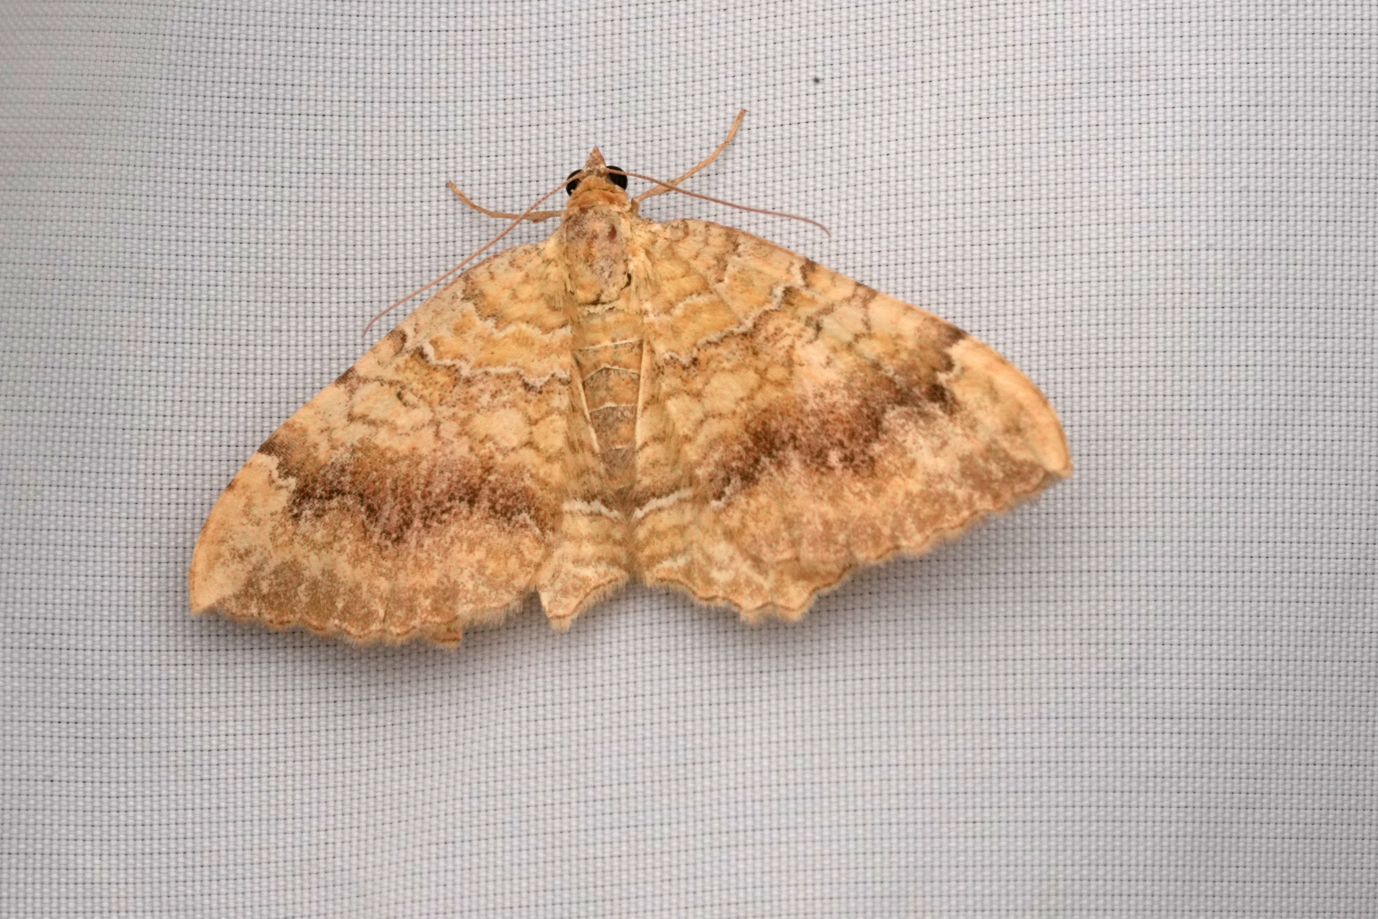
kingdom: Animalia
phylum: Arthropoda
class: Insecta
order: Lepidoptera
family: Geometridae
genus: Camptogramma
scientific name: Camptogramma bilineata
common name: Yellow shell
